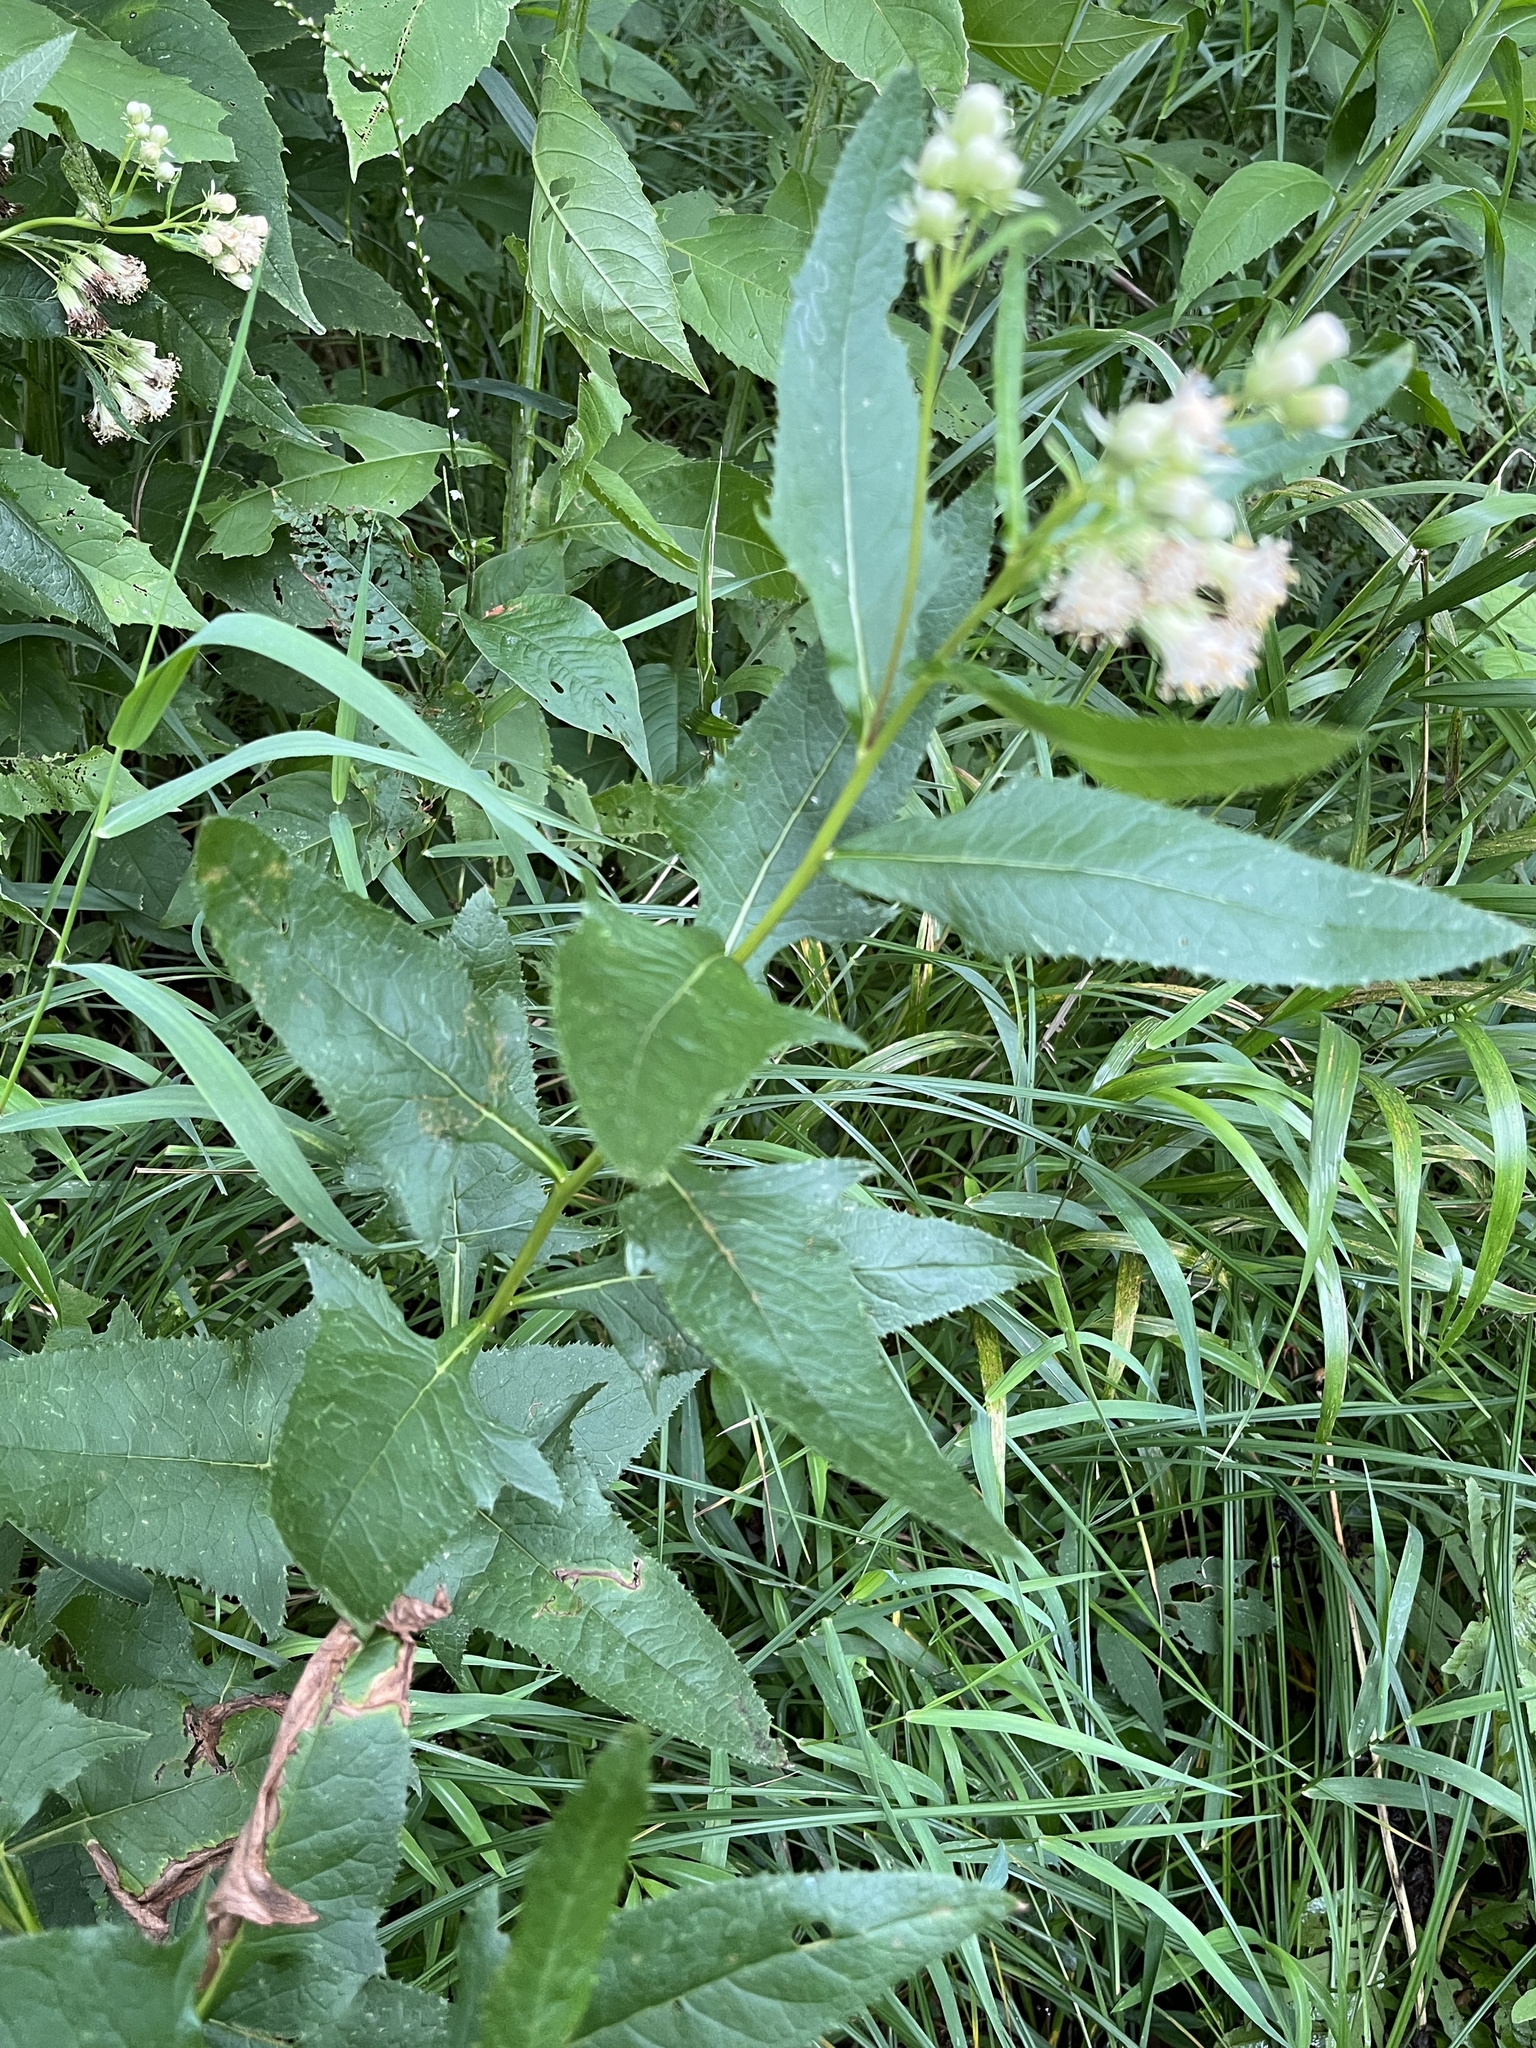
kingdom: Plantae
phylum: Tracheophyta
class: Magnoliopsida
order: Asterales
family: Asteraceae
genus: Hasteola
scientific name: Hasteola suaveolens
